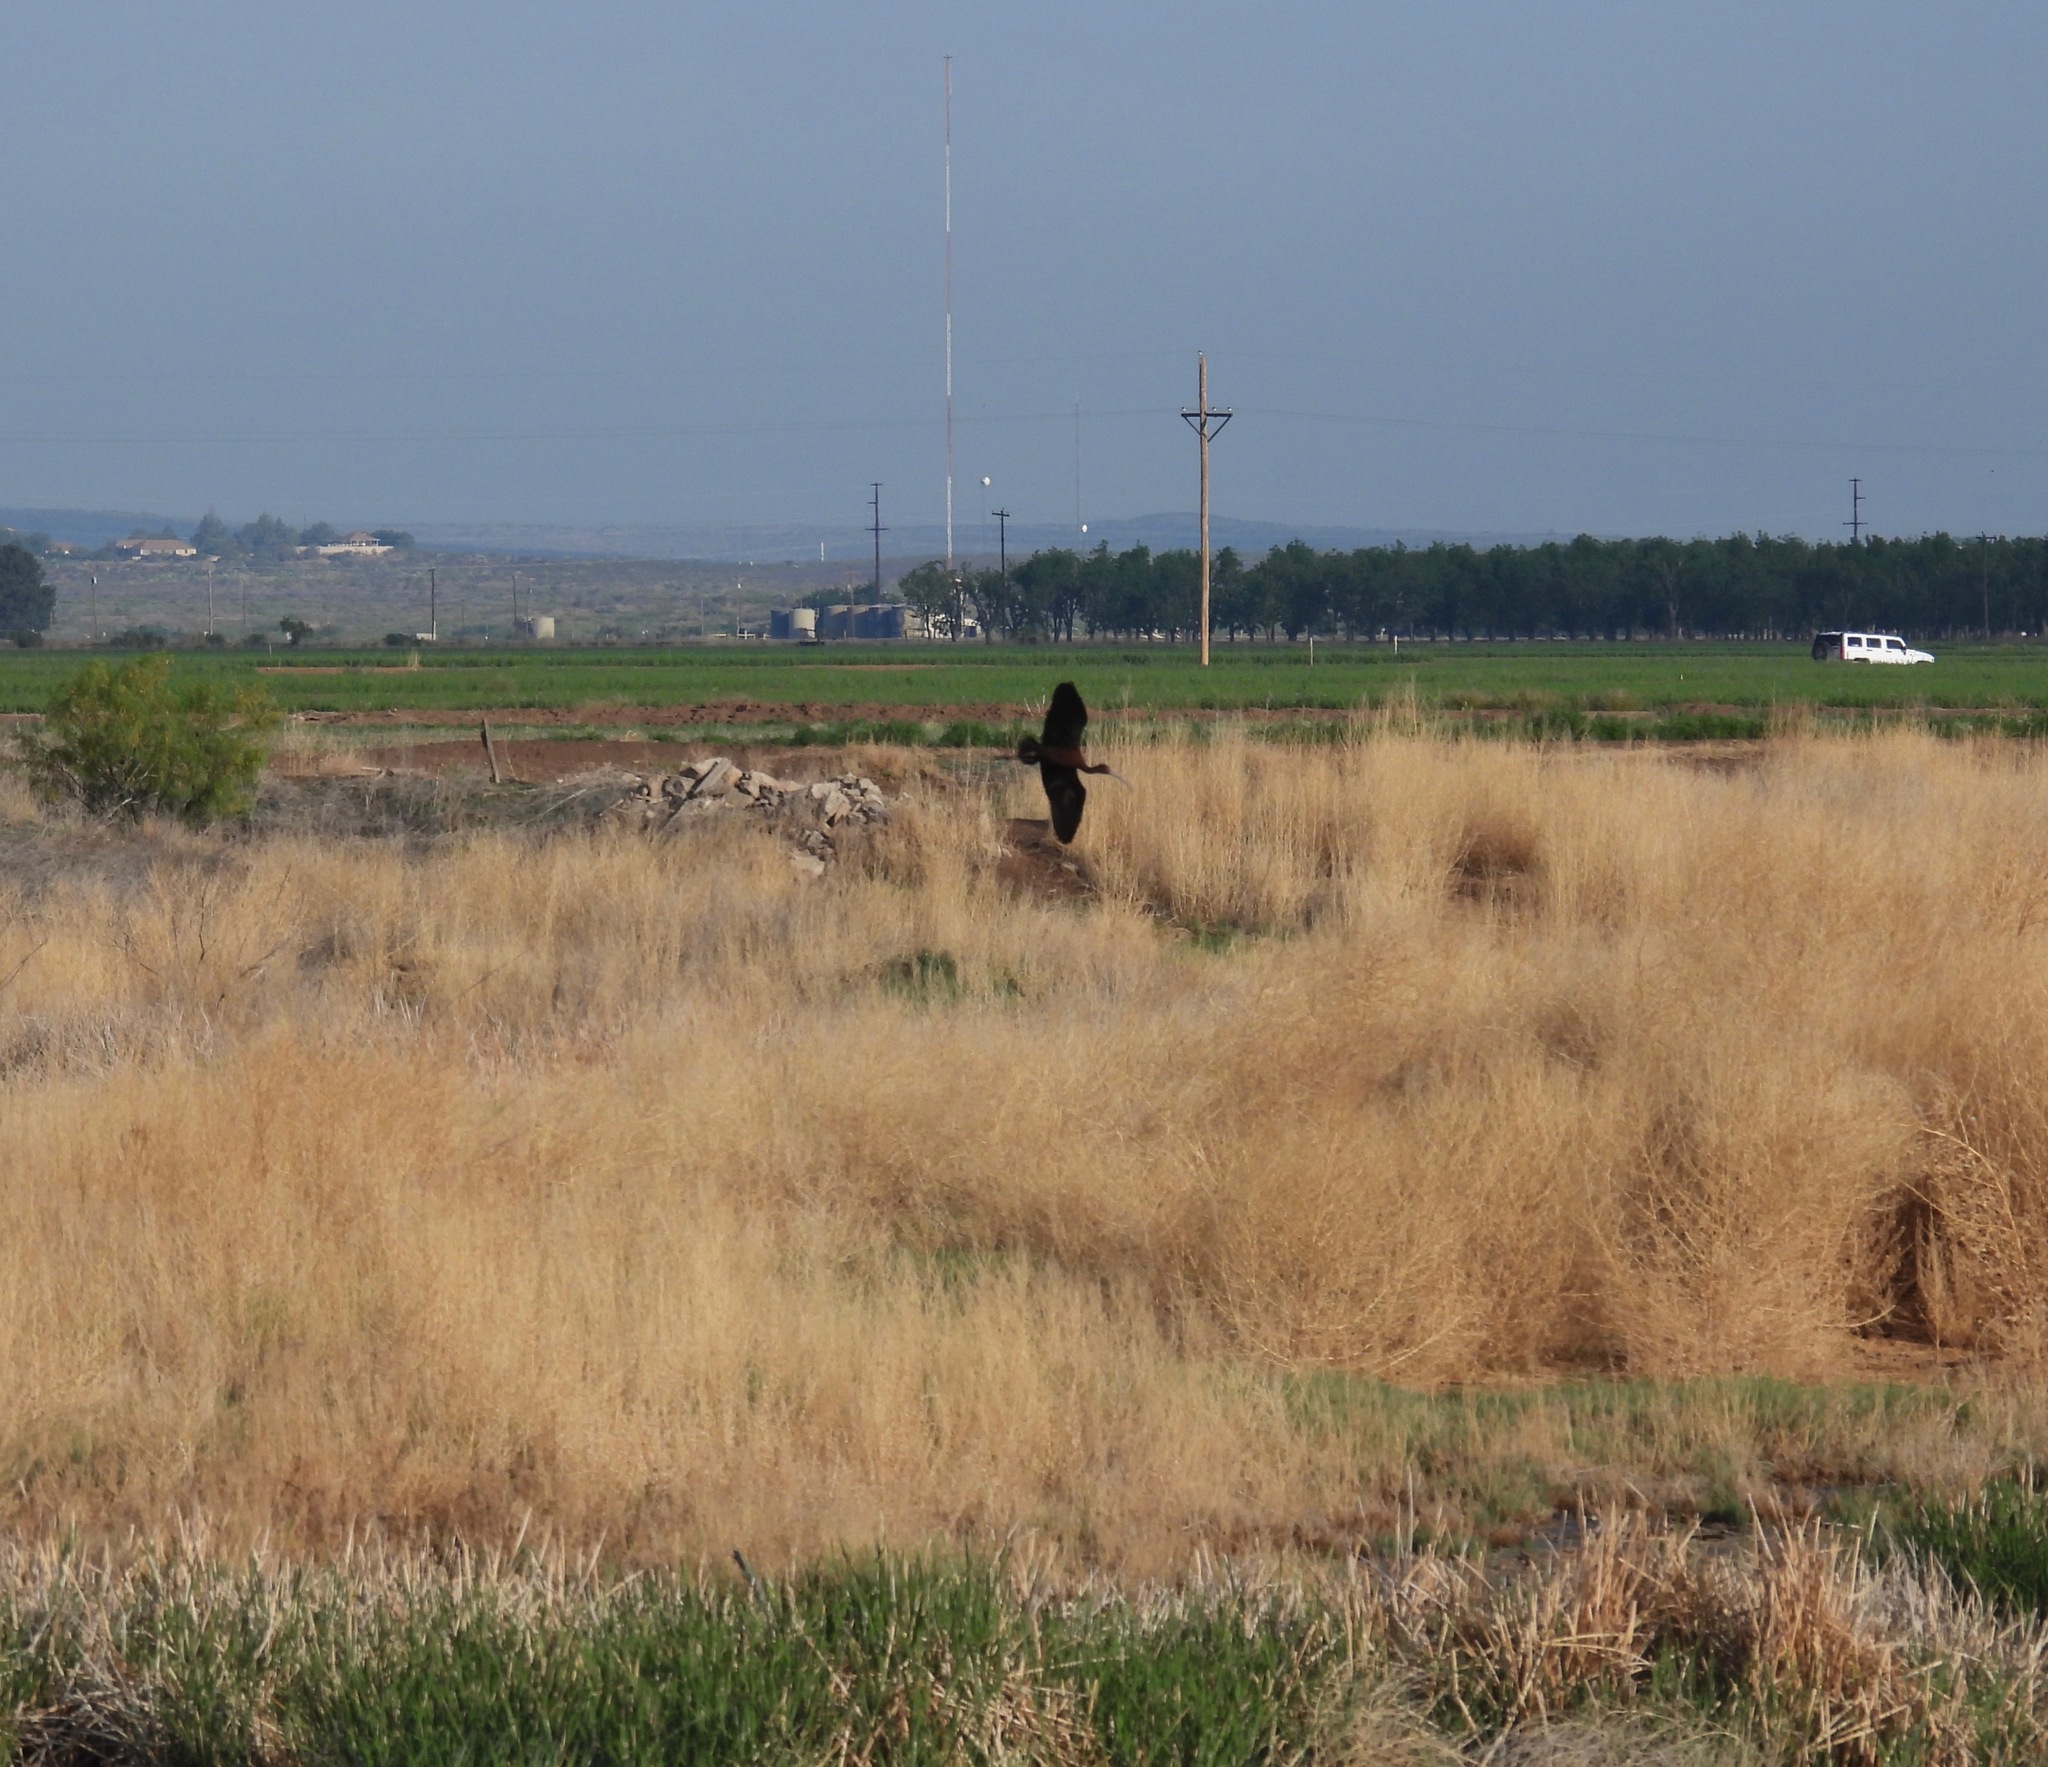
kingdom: Animalia
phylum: Chordata
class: Aves
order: Pelecaniformes
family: Threskiornithidae
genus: Plegadis
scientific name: Plegadis chihi
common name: White-faced ibis
